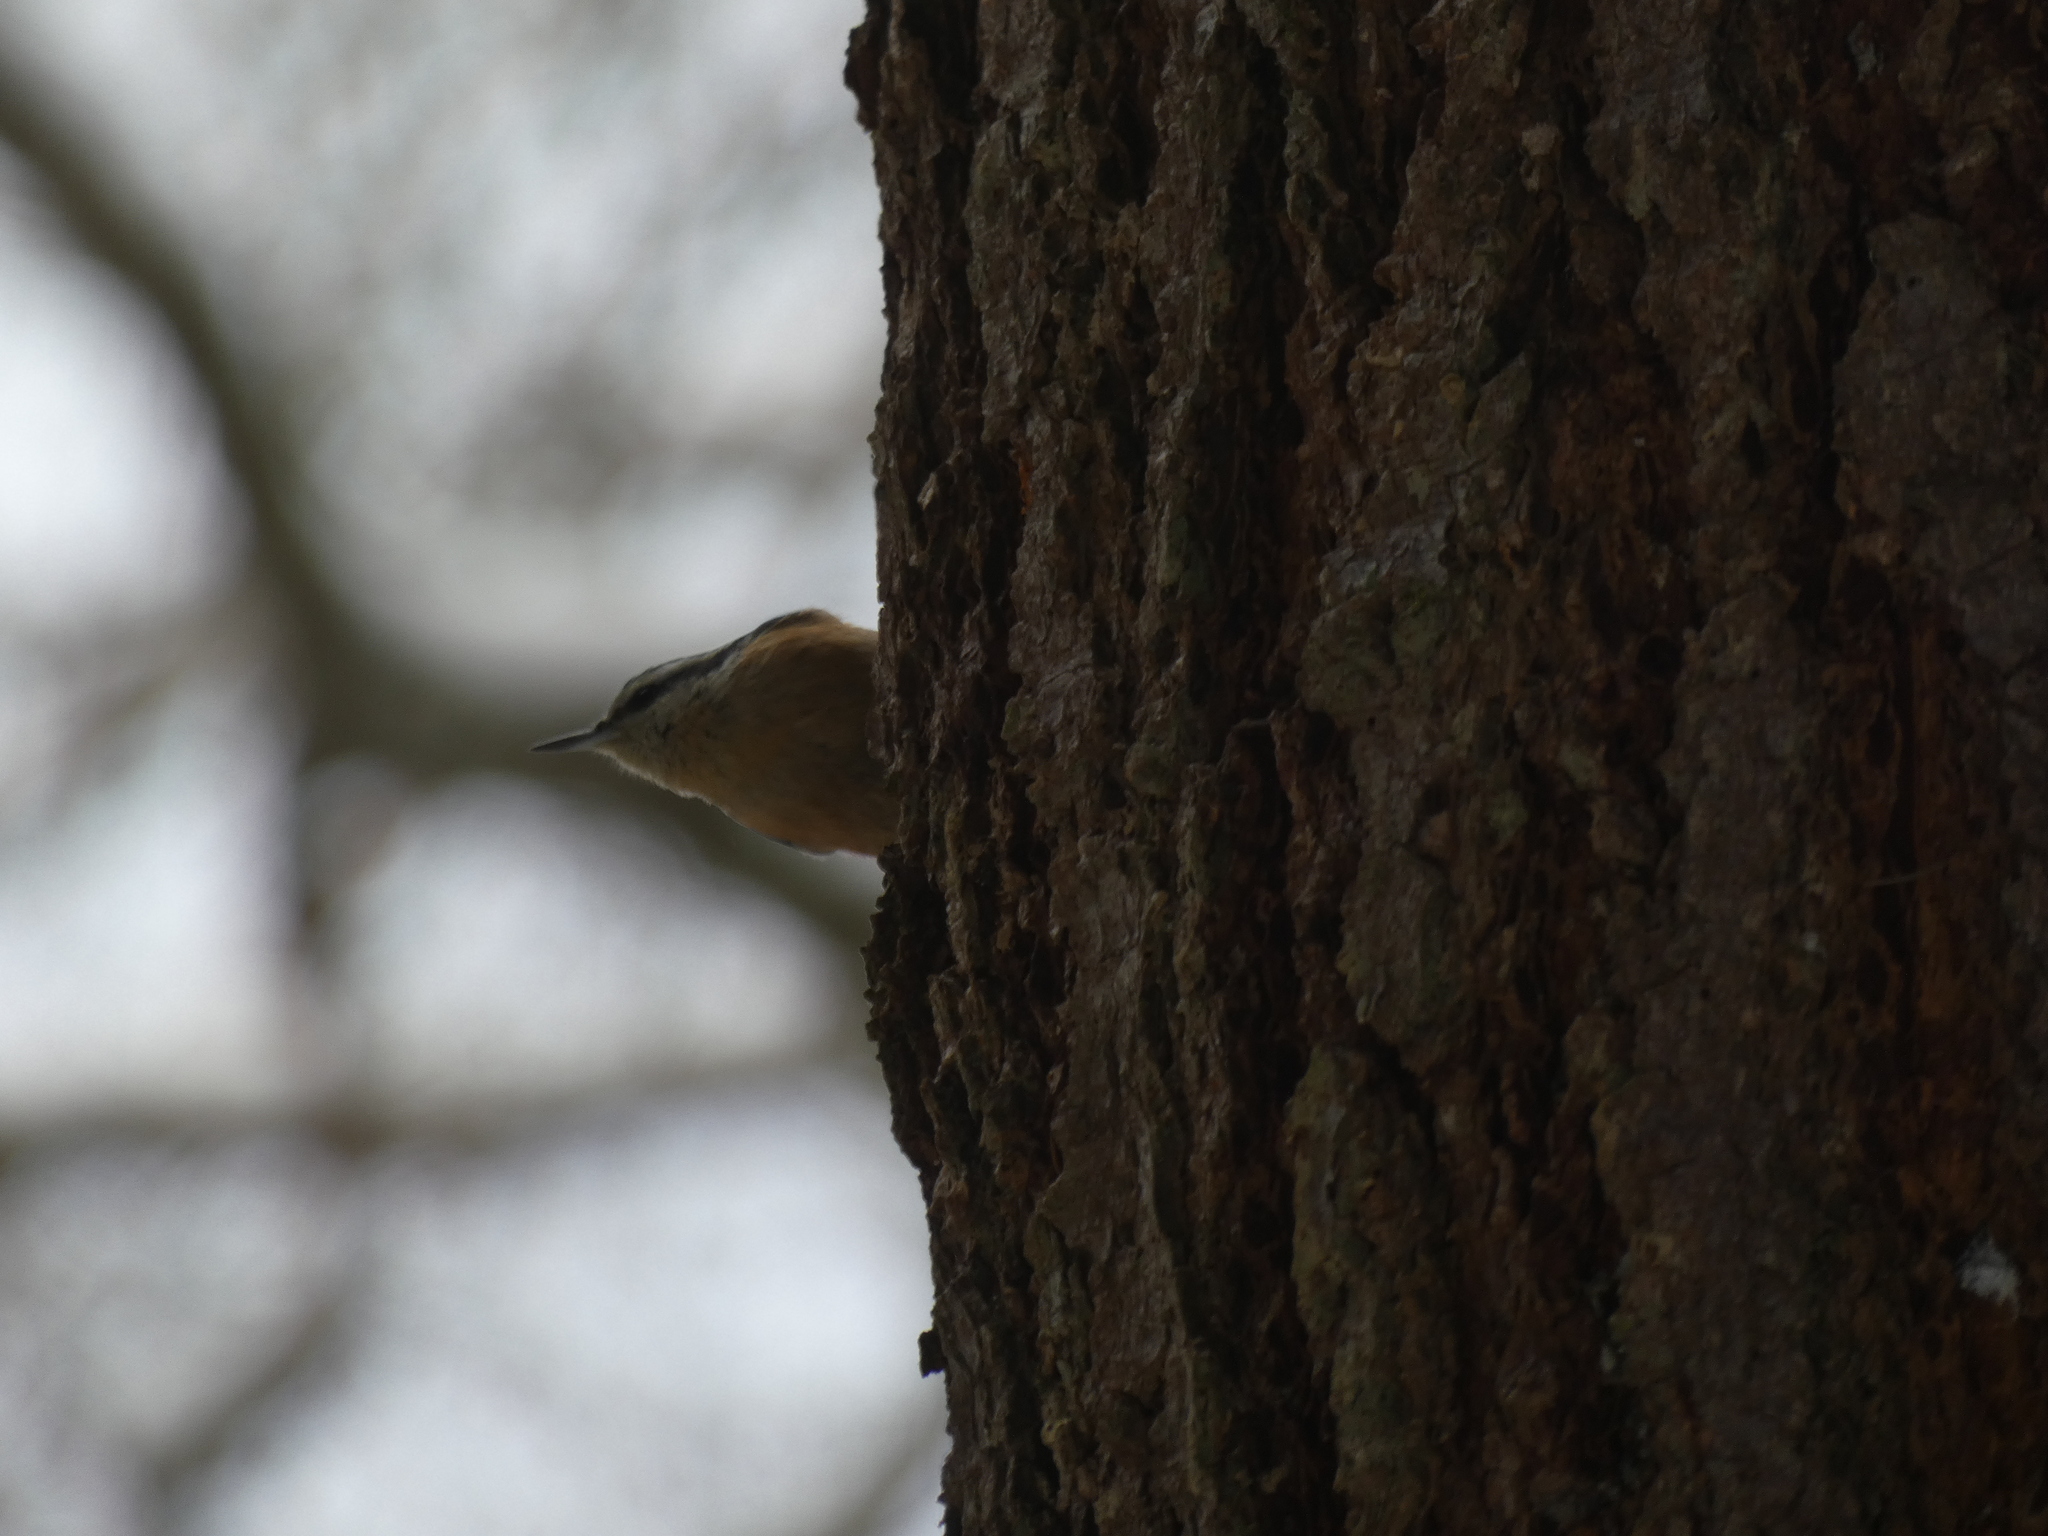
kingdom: Animalia
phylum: Chordata
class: Aves
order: Passeriformes
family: Sittidae
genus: Sitta
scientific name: Sitta canadensis
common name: Red-breasted nuthatch
